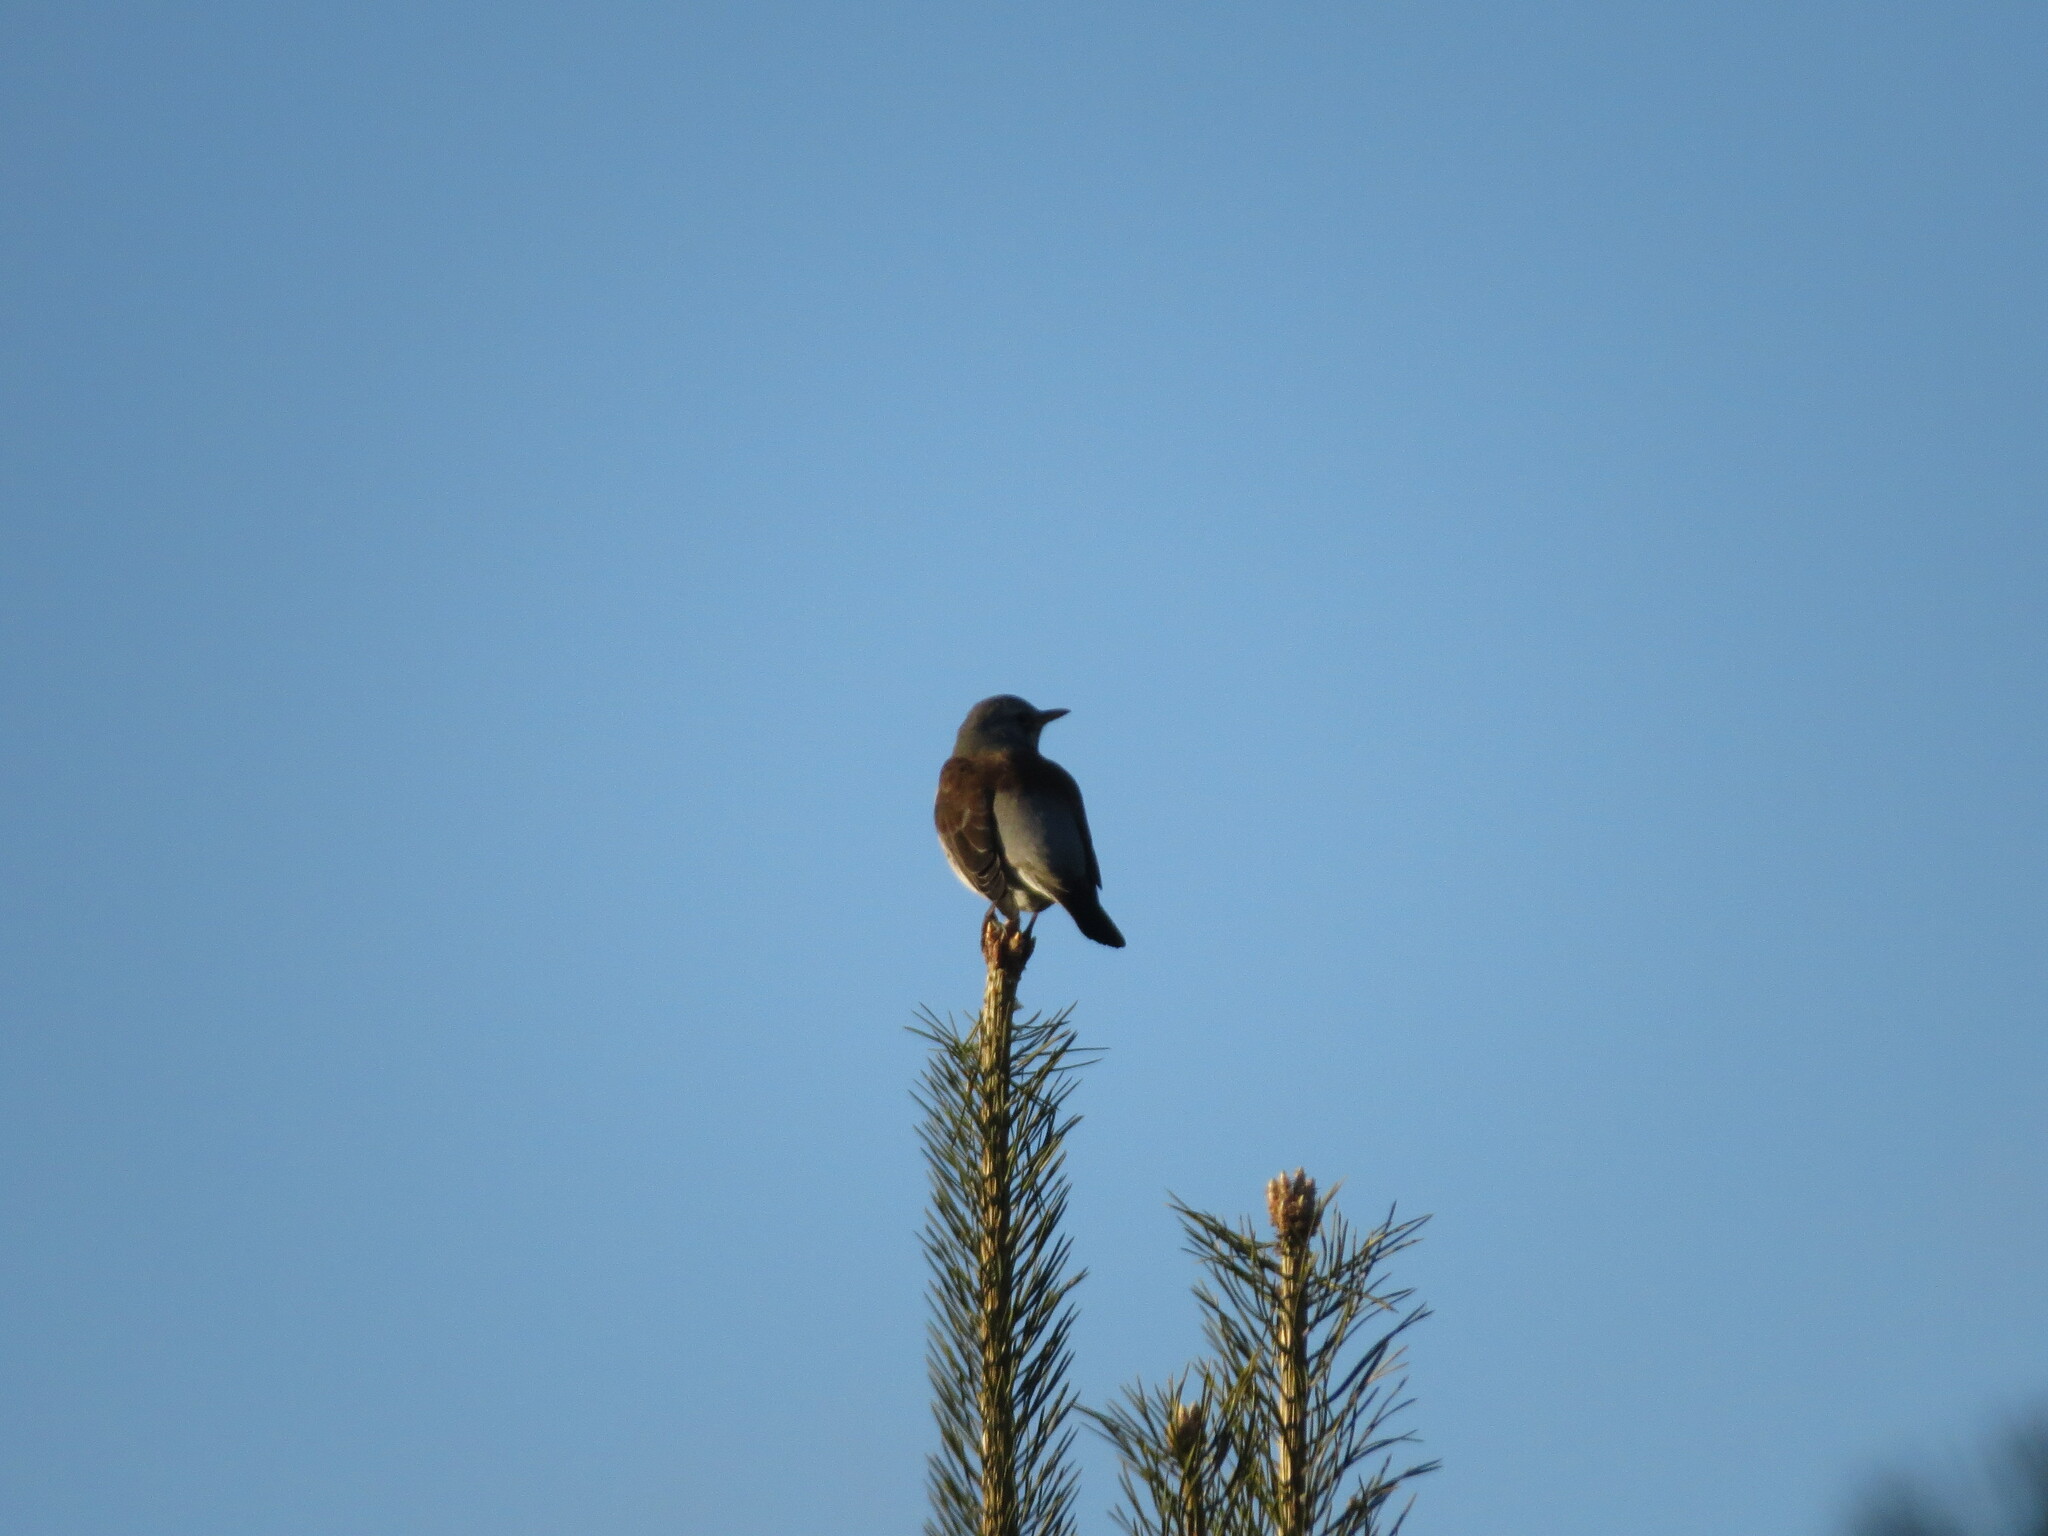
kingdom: Animalia
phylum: Chordata
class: Aves
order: Passeriformes
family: Turdidae
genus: Turdus
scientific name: Turdus pilaris
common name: Fieldfare
